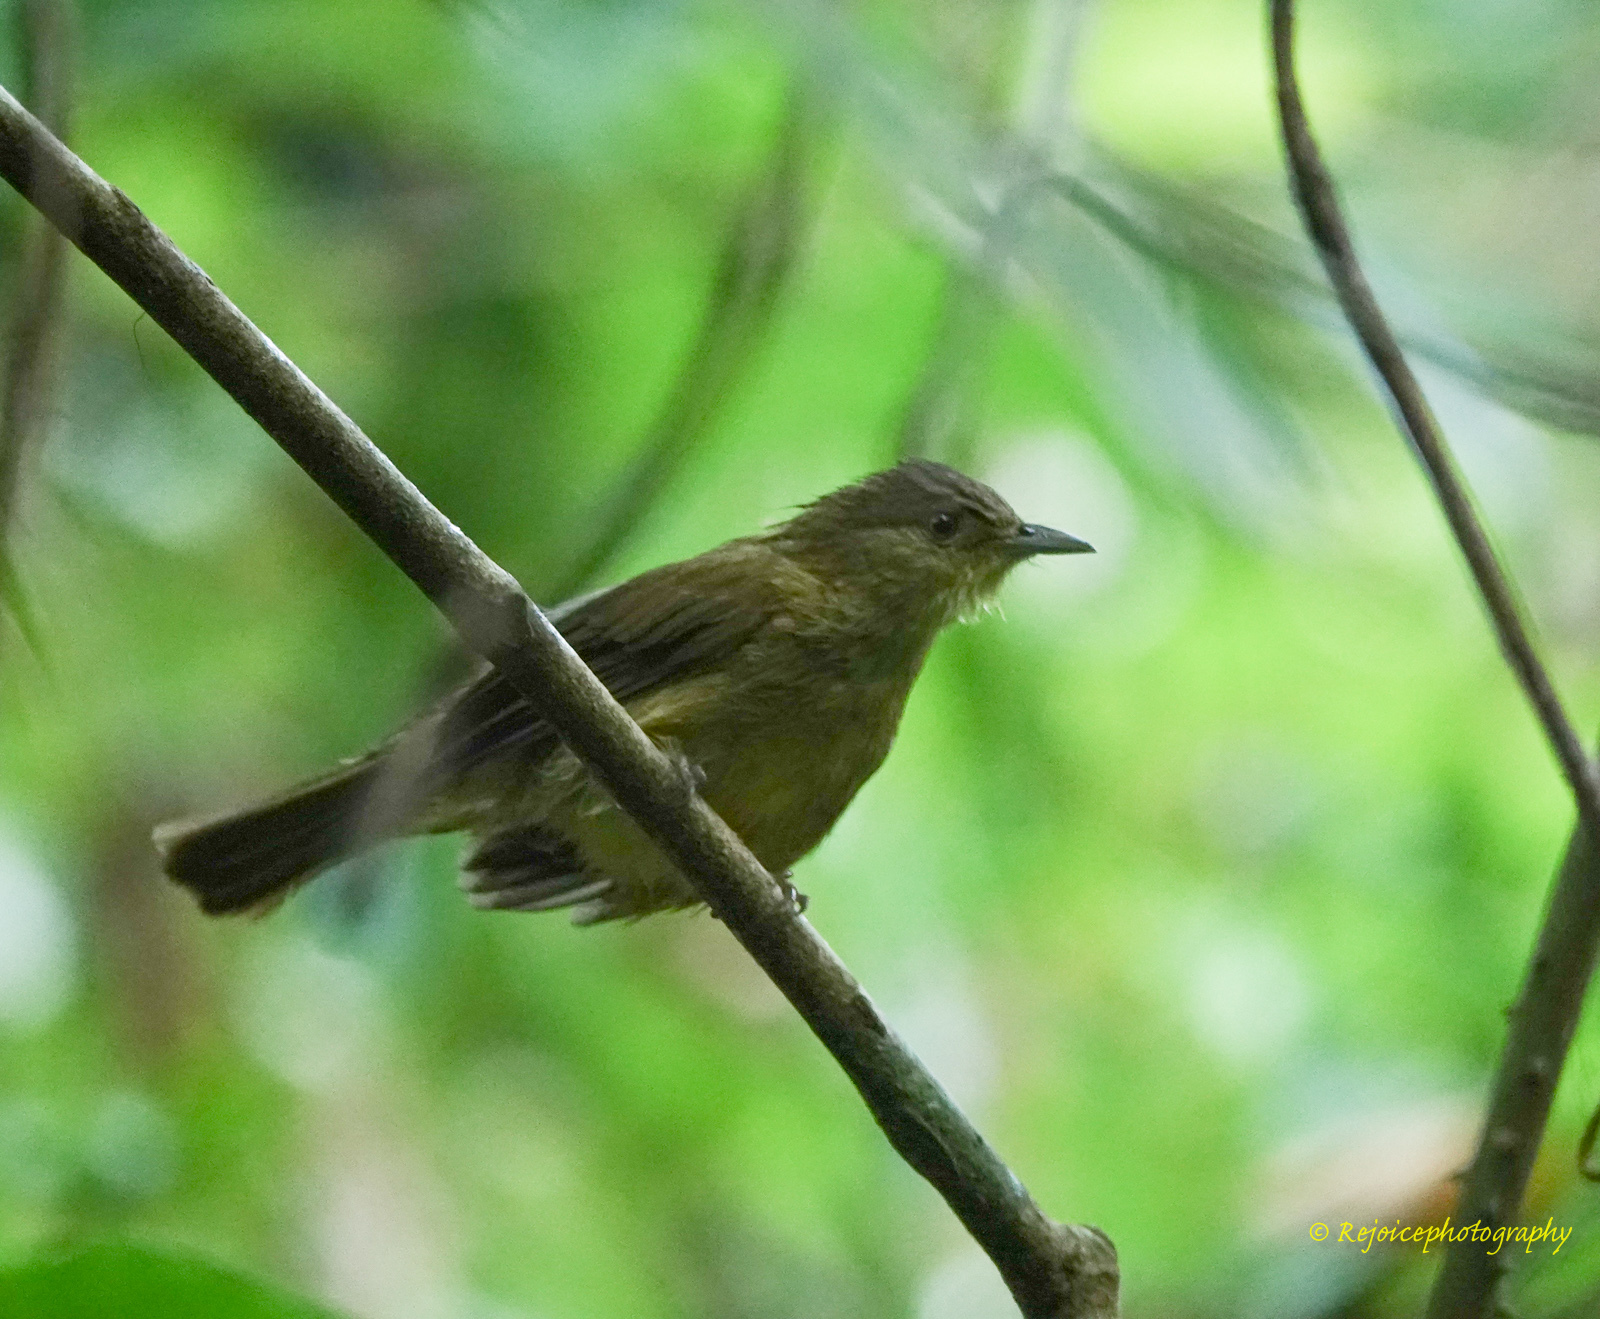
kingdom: Animalia
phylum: Chordata
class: Aves
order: Passeriformes
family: Pycnonotidae
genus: Iole
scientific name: Iole virescens
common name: Olive bulbul
